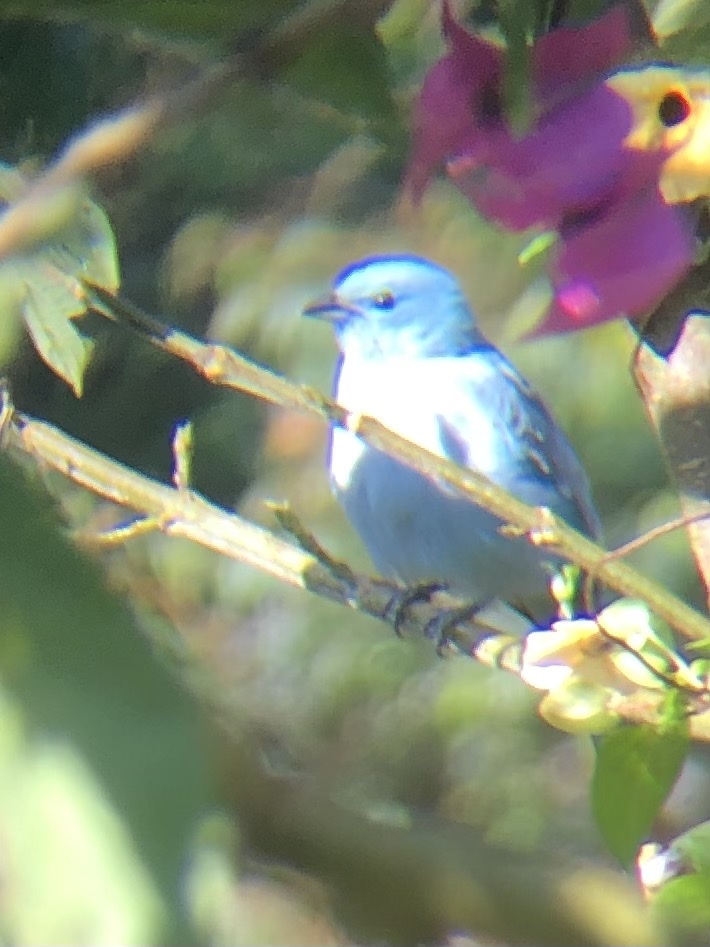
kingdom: Animalia
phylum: Chordata
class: Aves
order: Passeriformes
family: Thraupidae
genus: Thraupis
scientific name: Thraupis episcopus
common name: Blue-grey tanager
